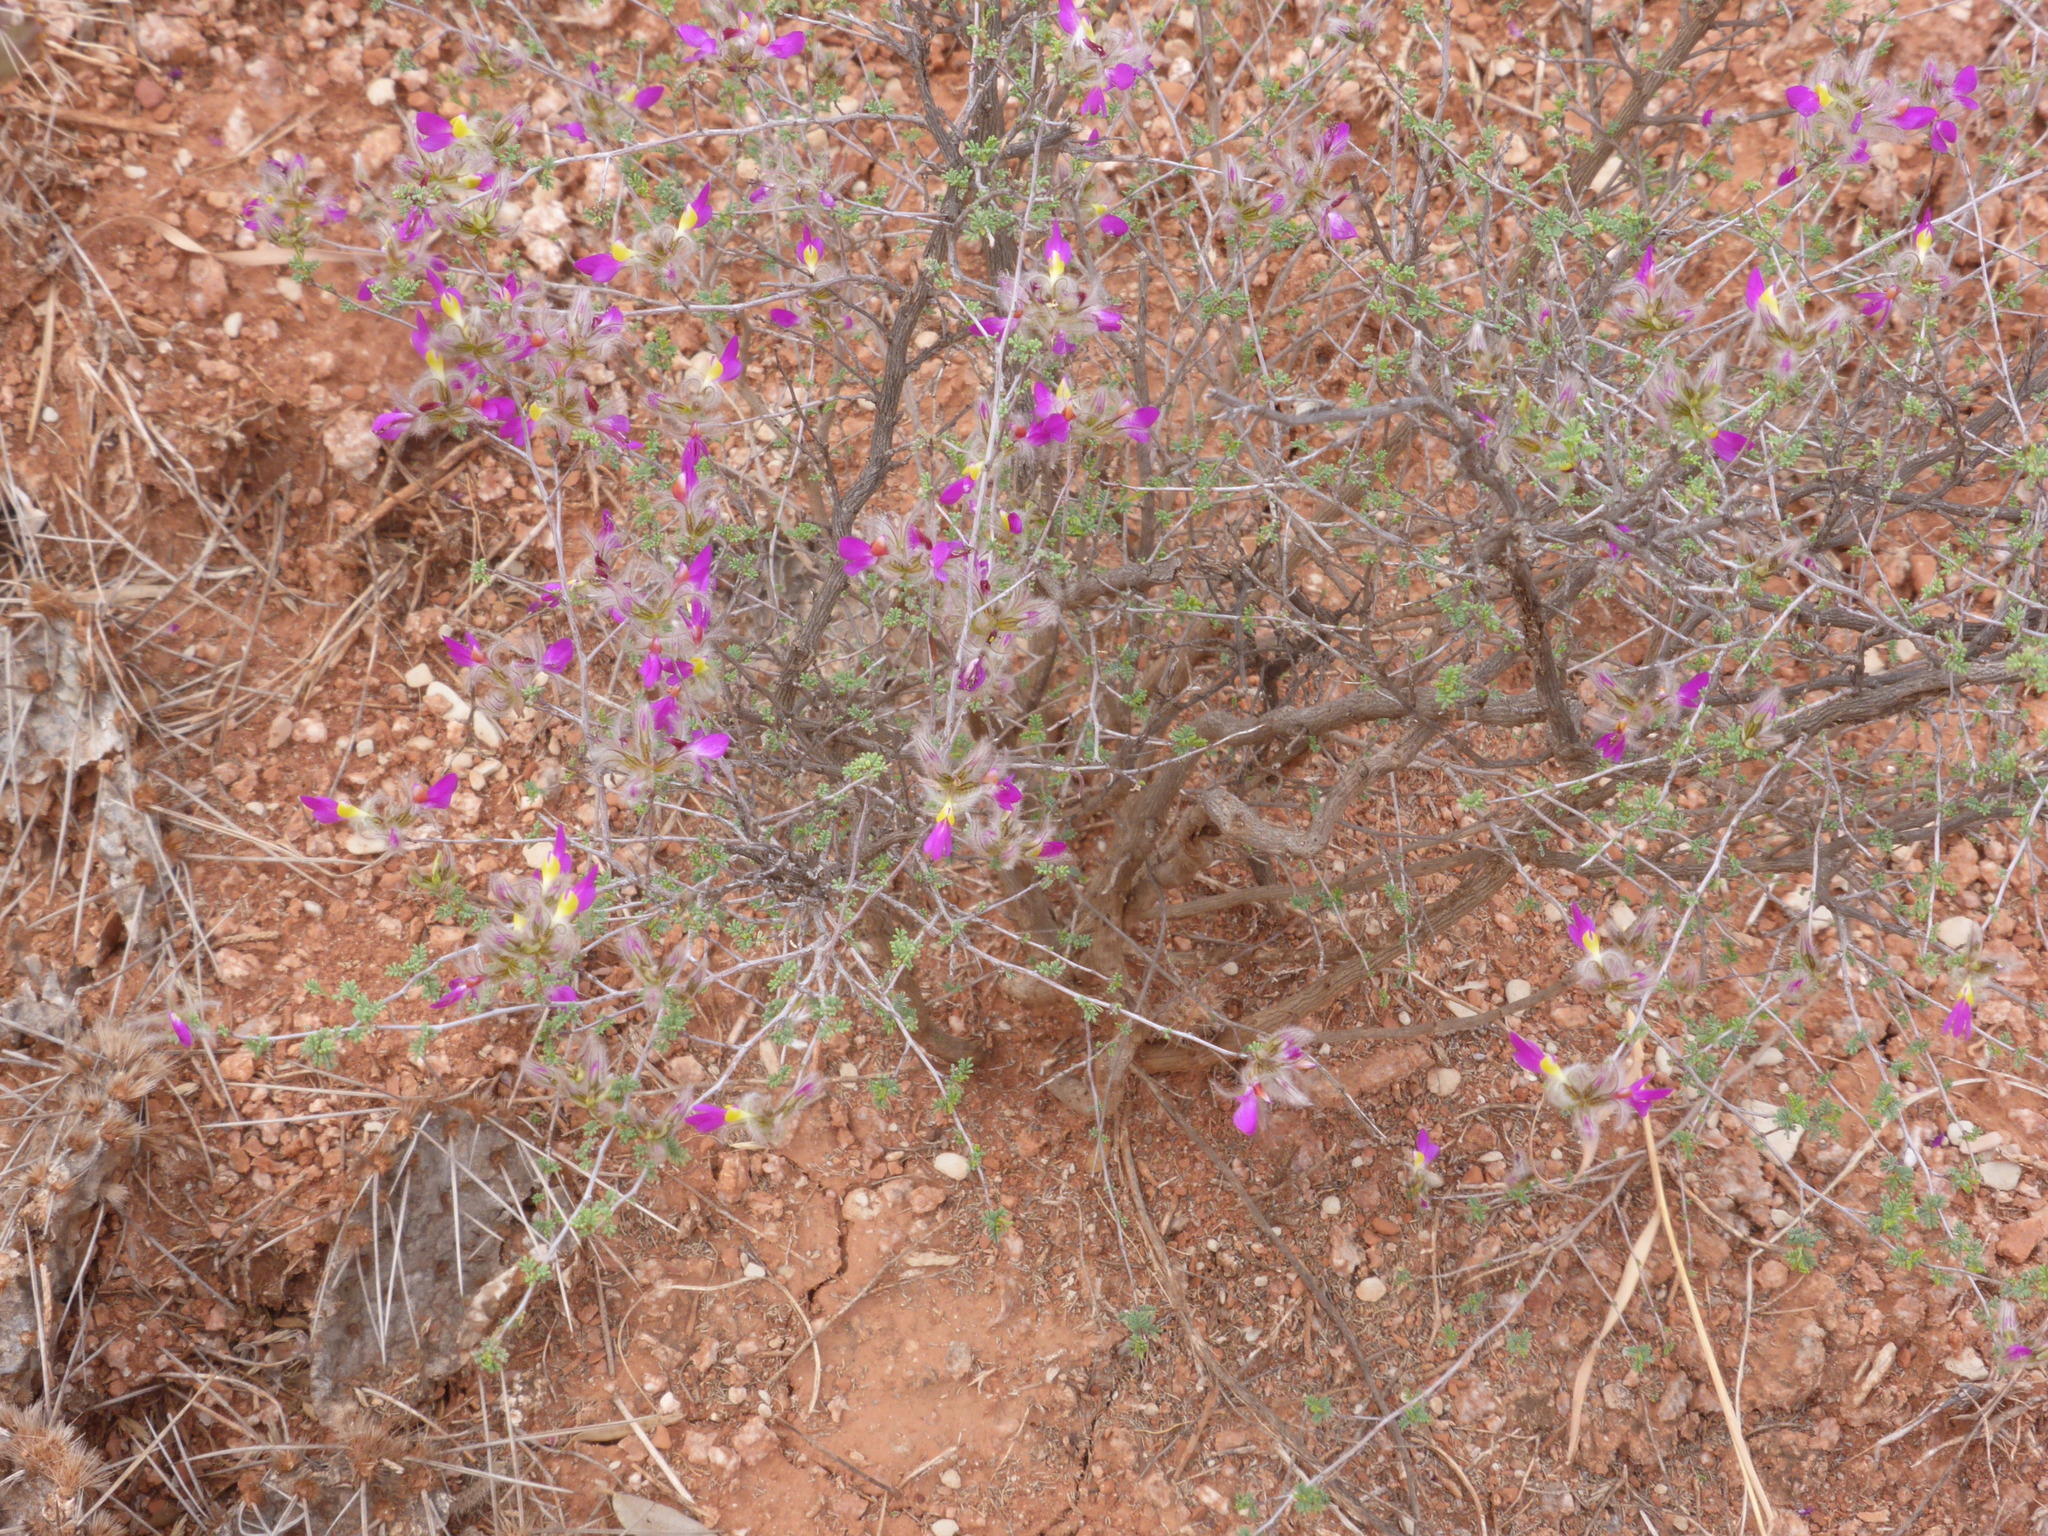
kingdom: Plantae
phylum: Tracheophyta
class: Magnoliopsida
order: Fabales
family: Fabaceae
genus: Dalea
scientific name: Dalea formosa
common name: Feather-plume dalea
